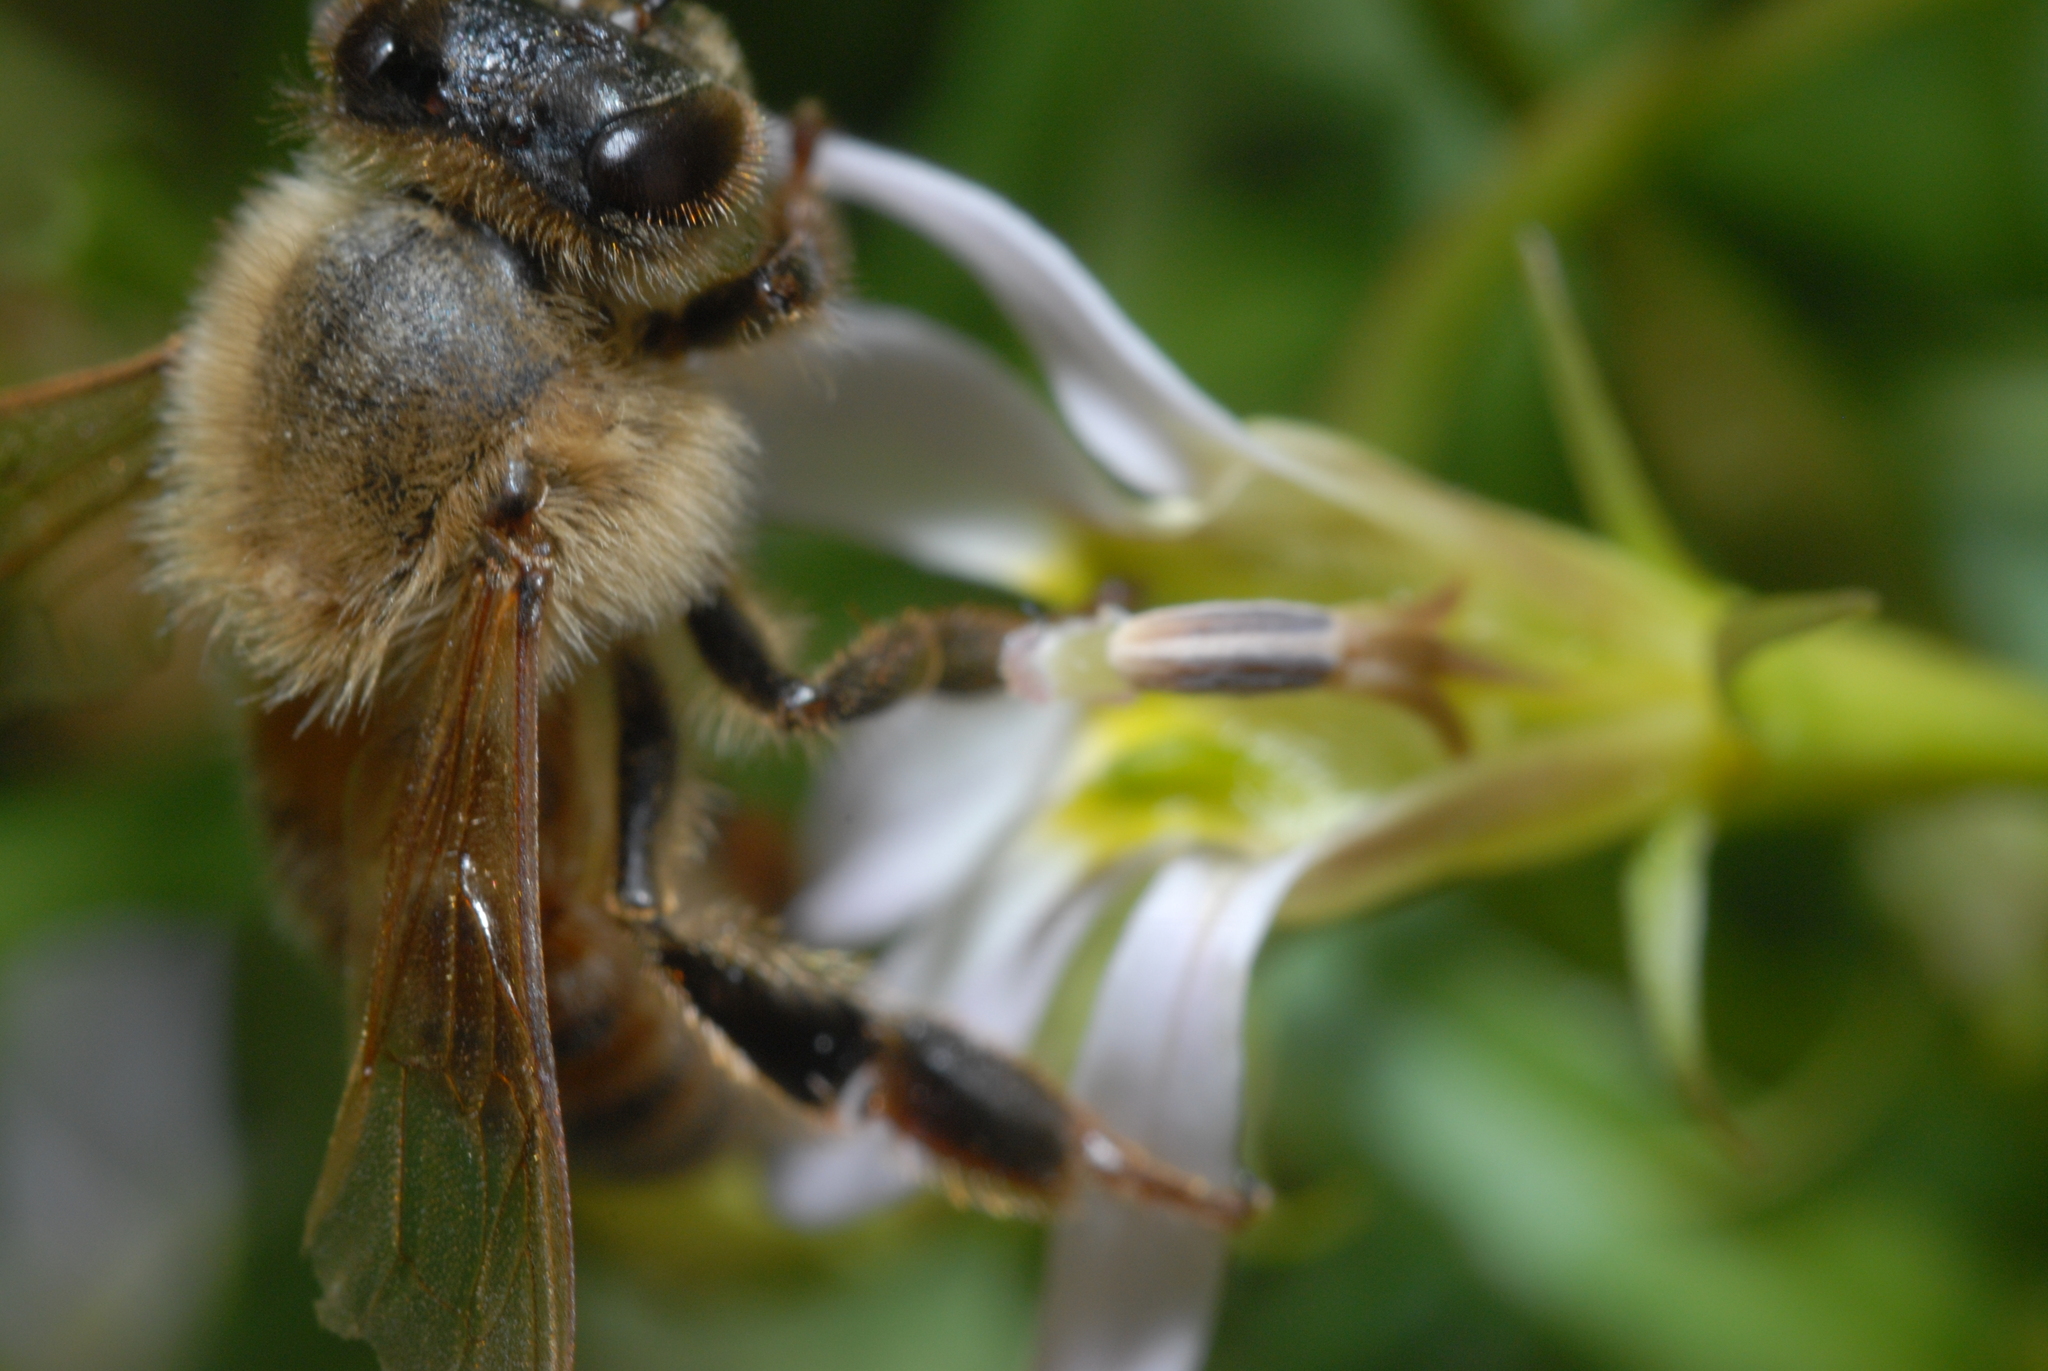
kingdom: Animalia
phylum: Arthropoda
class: Insecta
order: Hymenoptera
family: Apidae
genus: Apis
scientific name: Apis mellifera
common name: Honey bee
